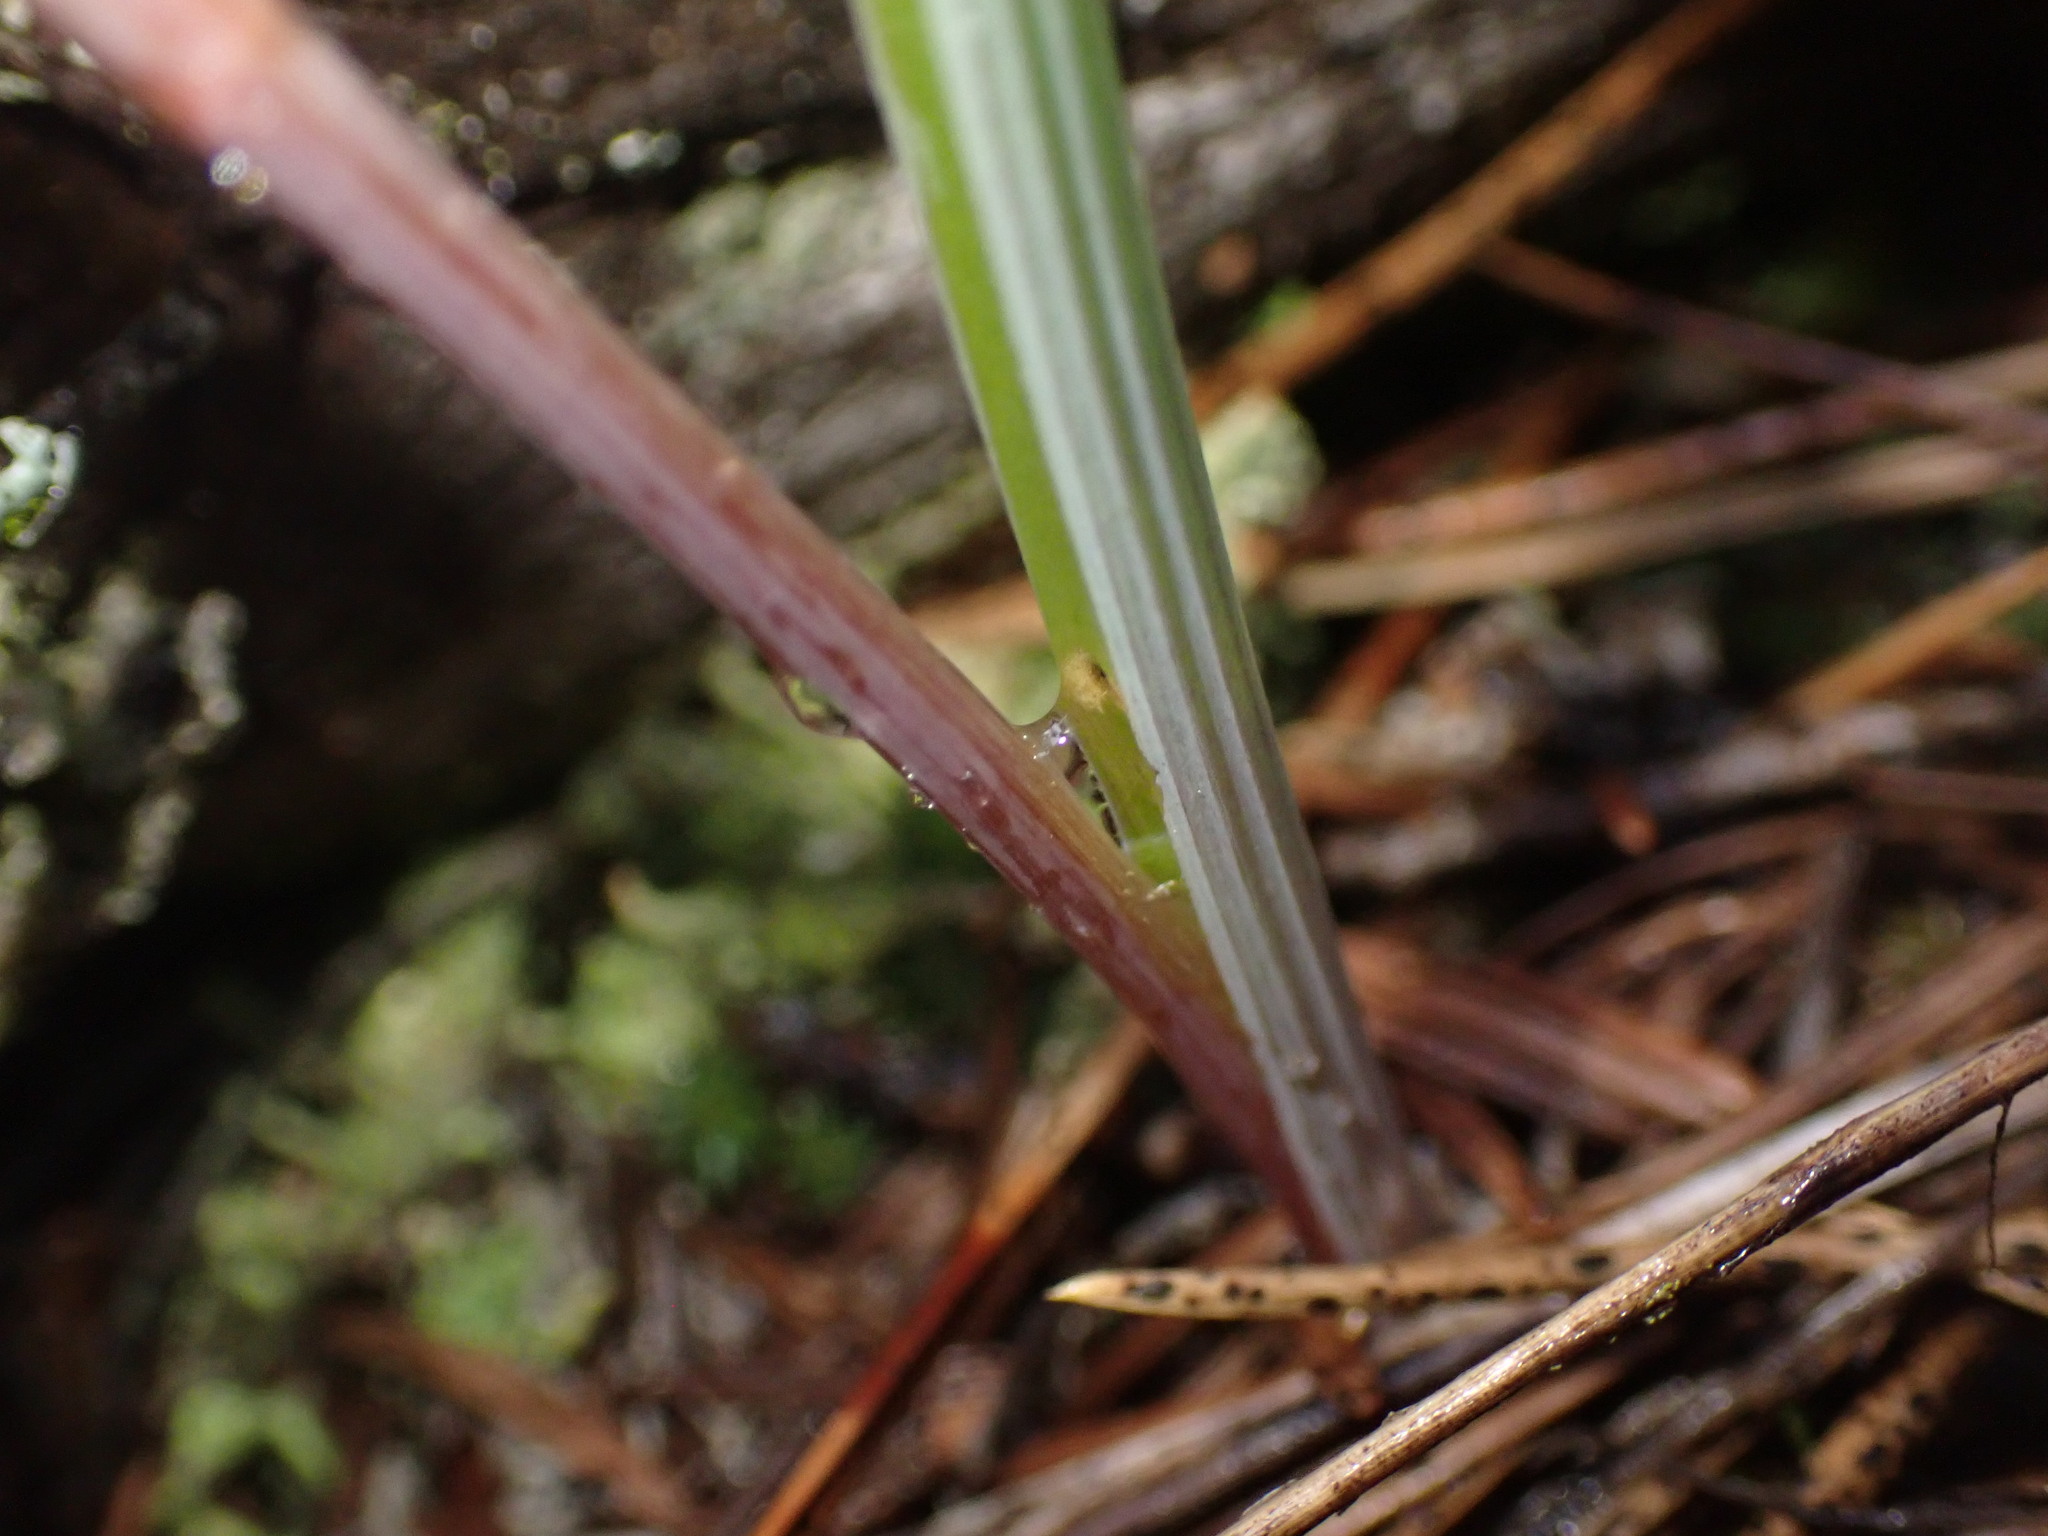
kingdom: Plantae
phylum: Tracheophyta
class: Liliopsida
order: Liliales
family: Liliaceae
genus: Calochortus
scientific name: Calochortus macrocarpus
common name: Green-band mariposa lily
